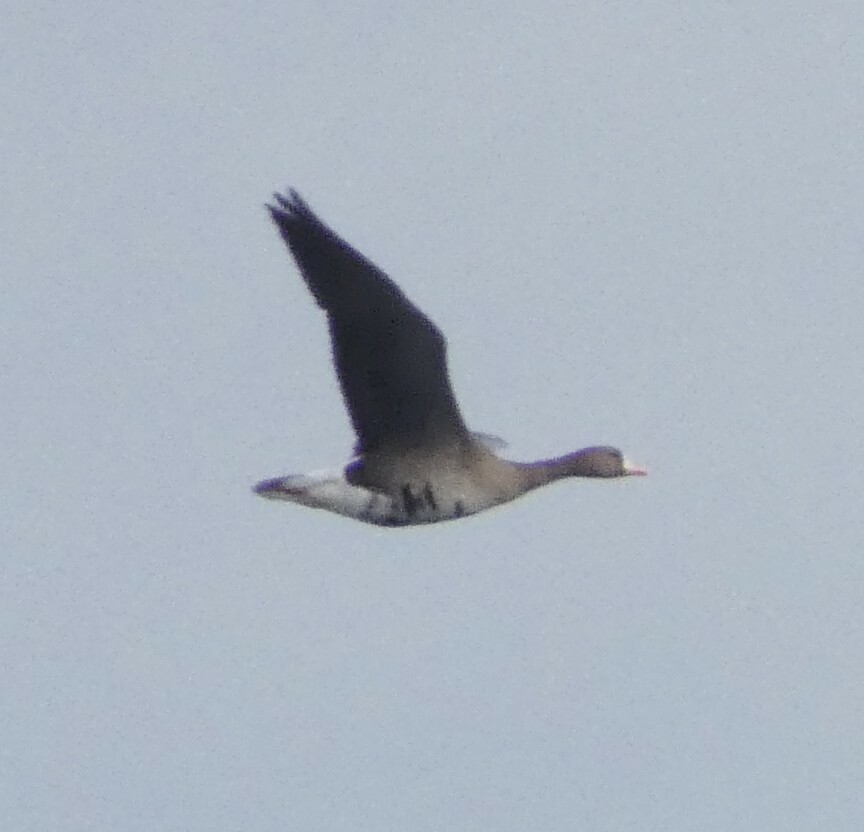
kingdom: Animalia
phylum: Chordata
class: Aves
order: Anseriformes
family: Anatidae
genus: Anser
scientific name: Anser albifrons
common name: Greater white-fronted goose
